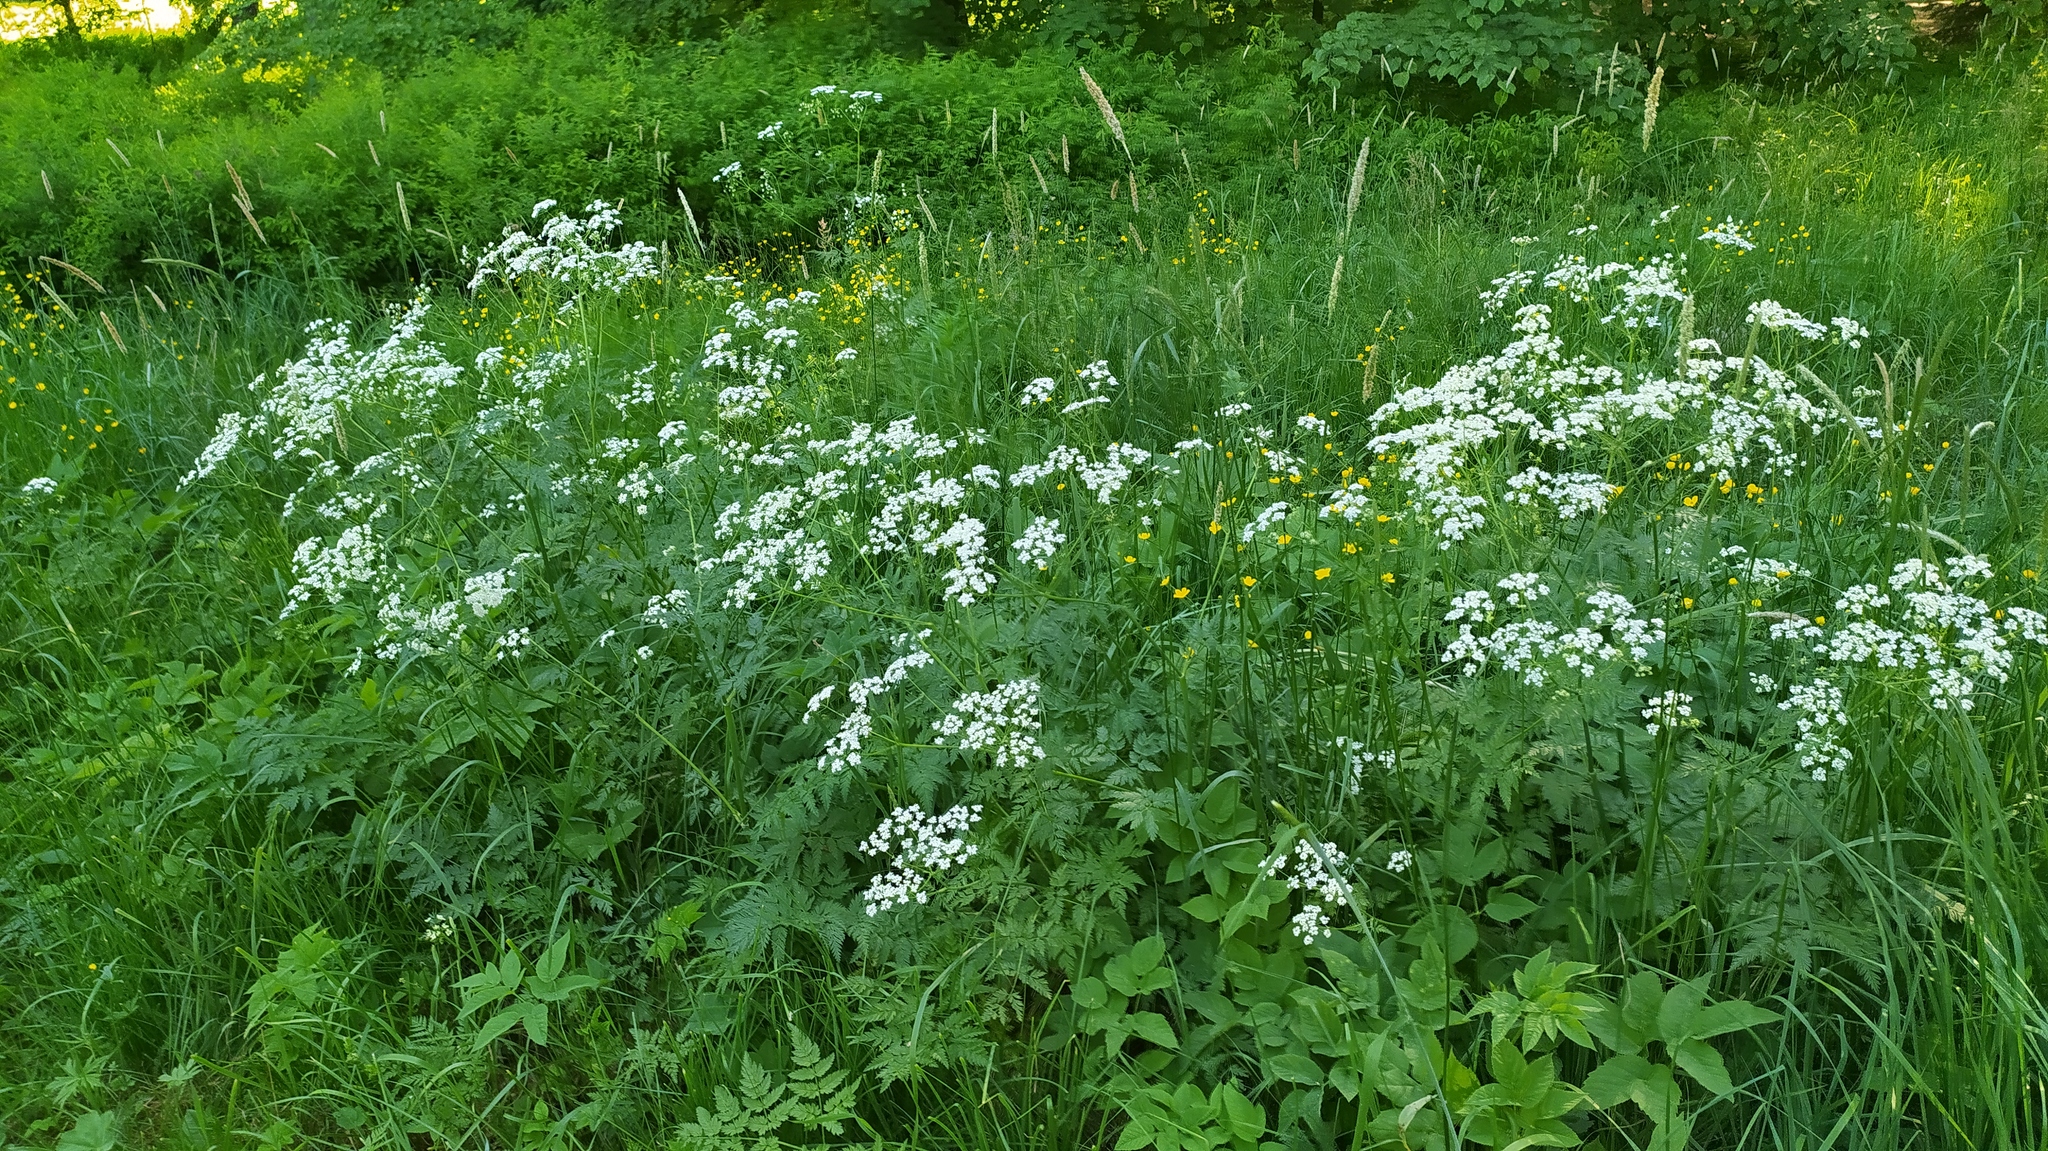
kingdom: Plantae
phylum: Tracheophyta
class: Magnoliopsida
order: Apiales
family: Apiaceae
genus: Anthriscus
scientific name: Anthriscus sylvestris
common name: Cow parsley
